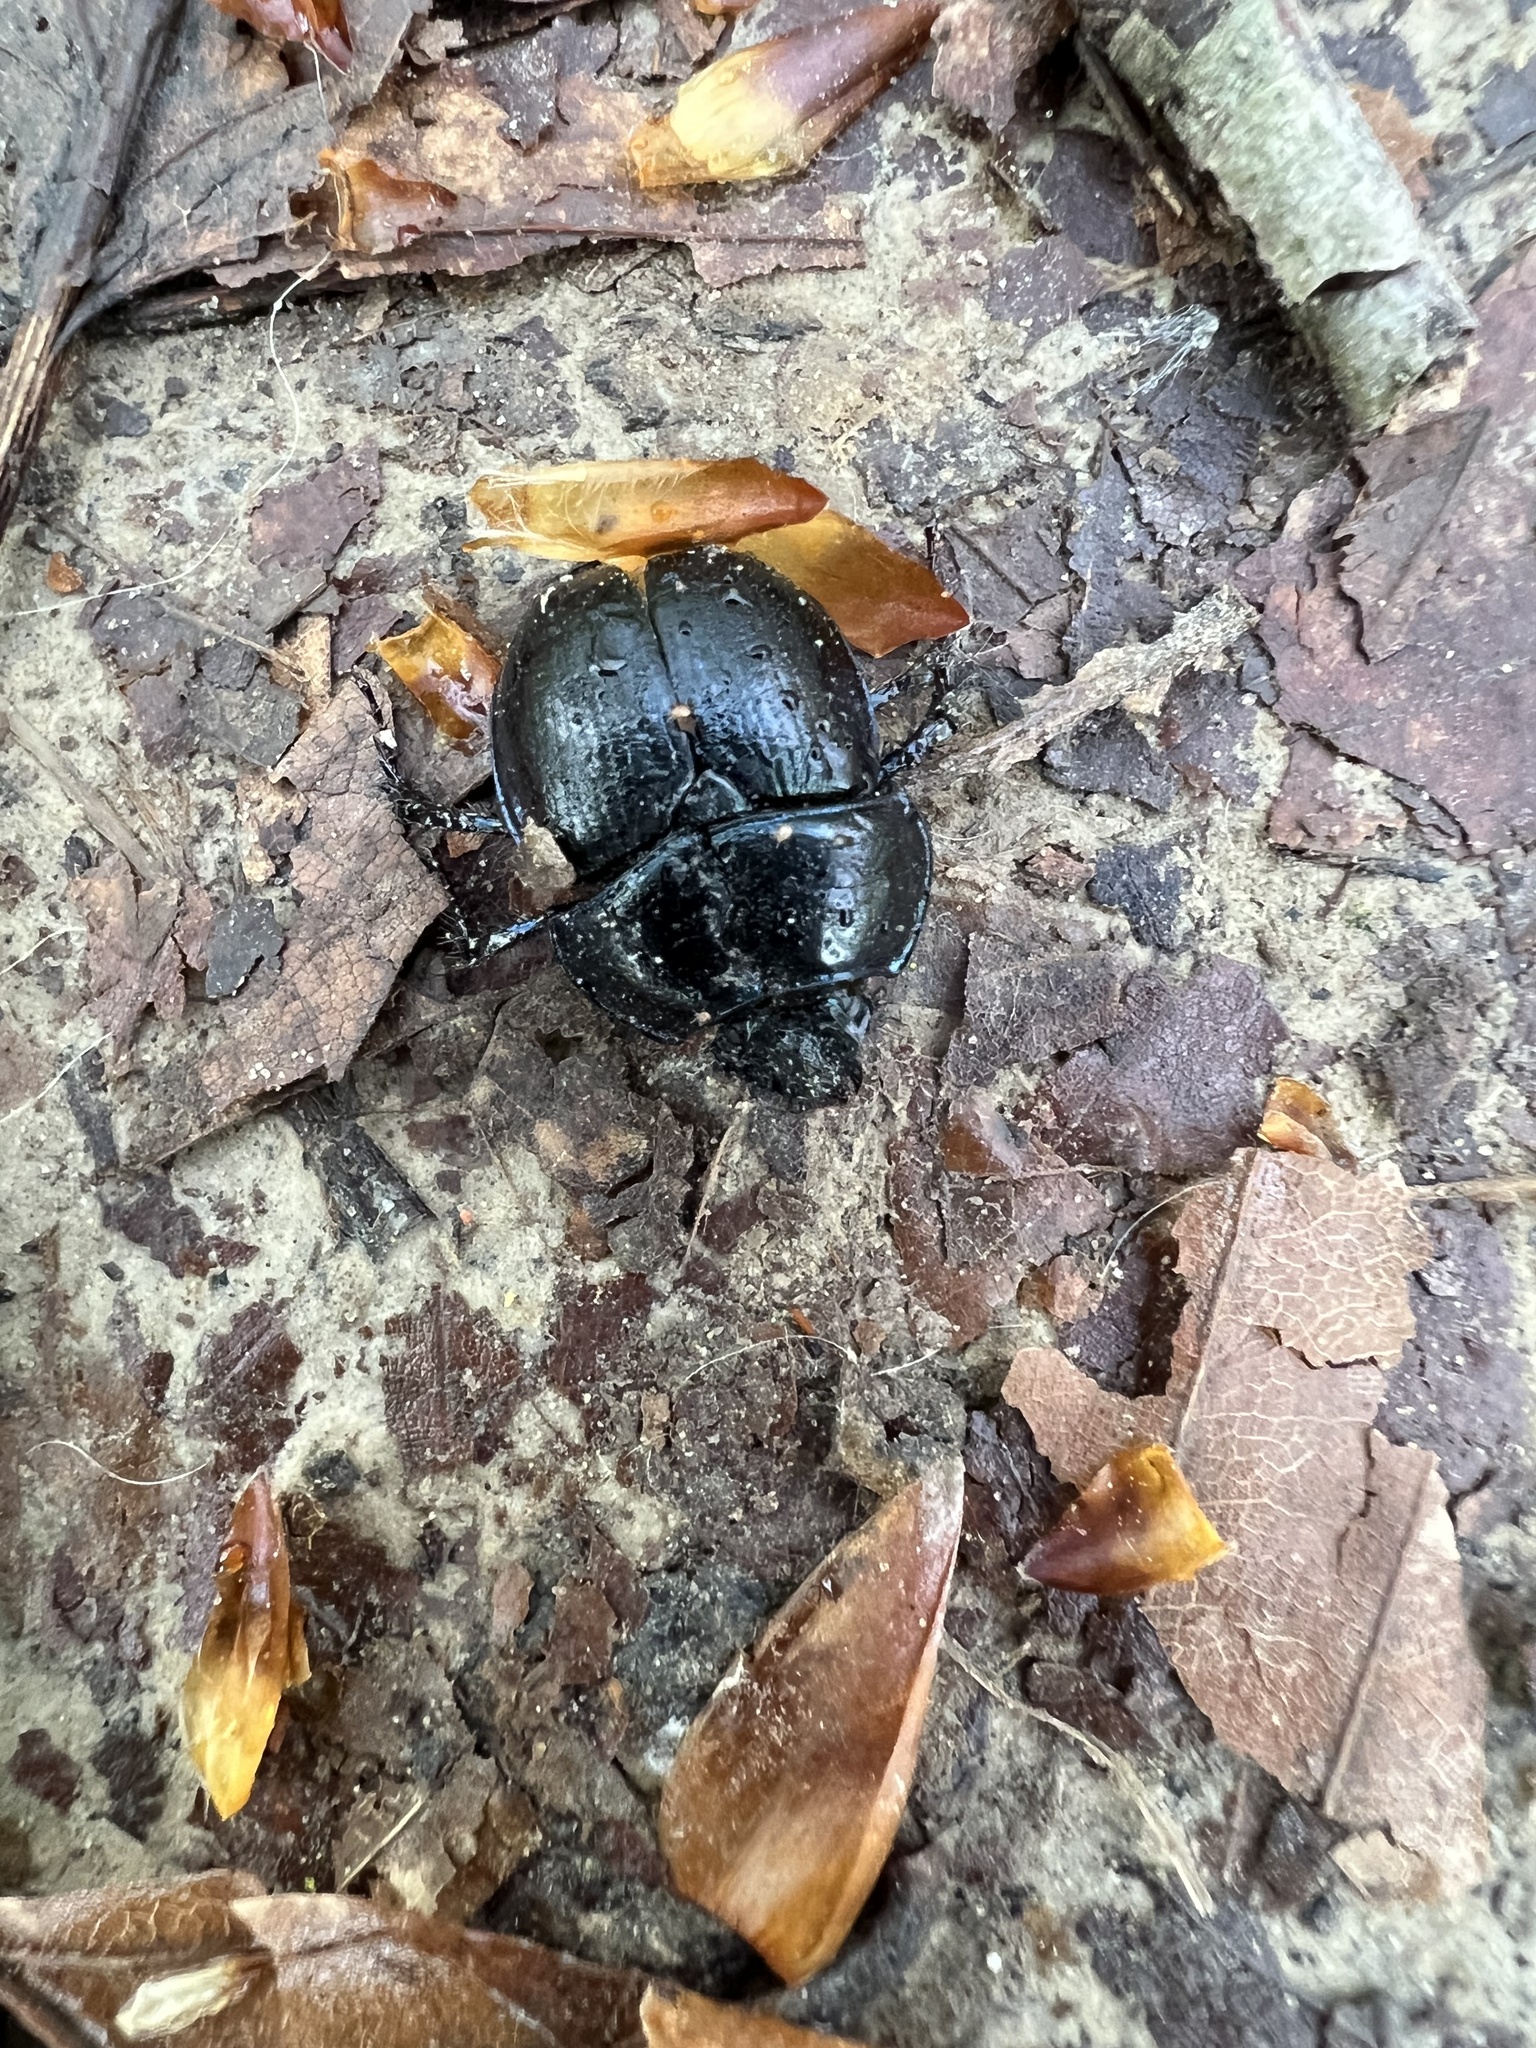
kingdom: Animalia
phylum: Arthropoda
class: Insecta
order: Coleoptera
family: Geotrupidae
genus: Anoplotrupes
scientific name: Anoplotrupes stercorosus
